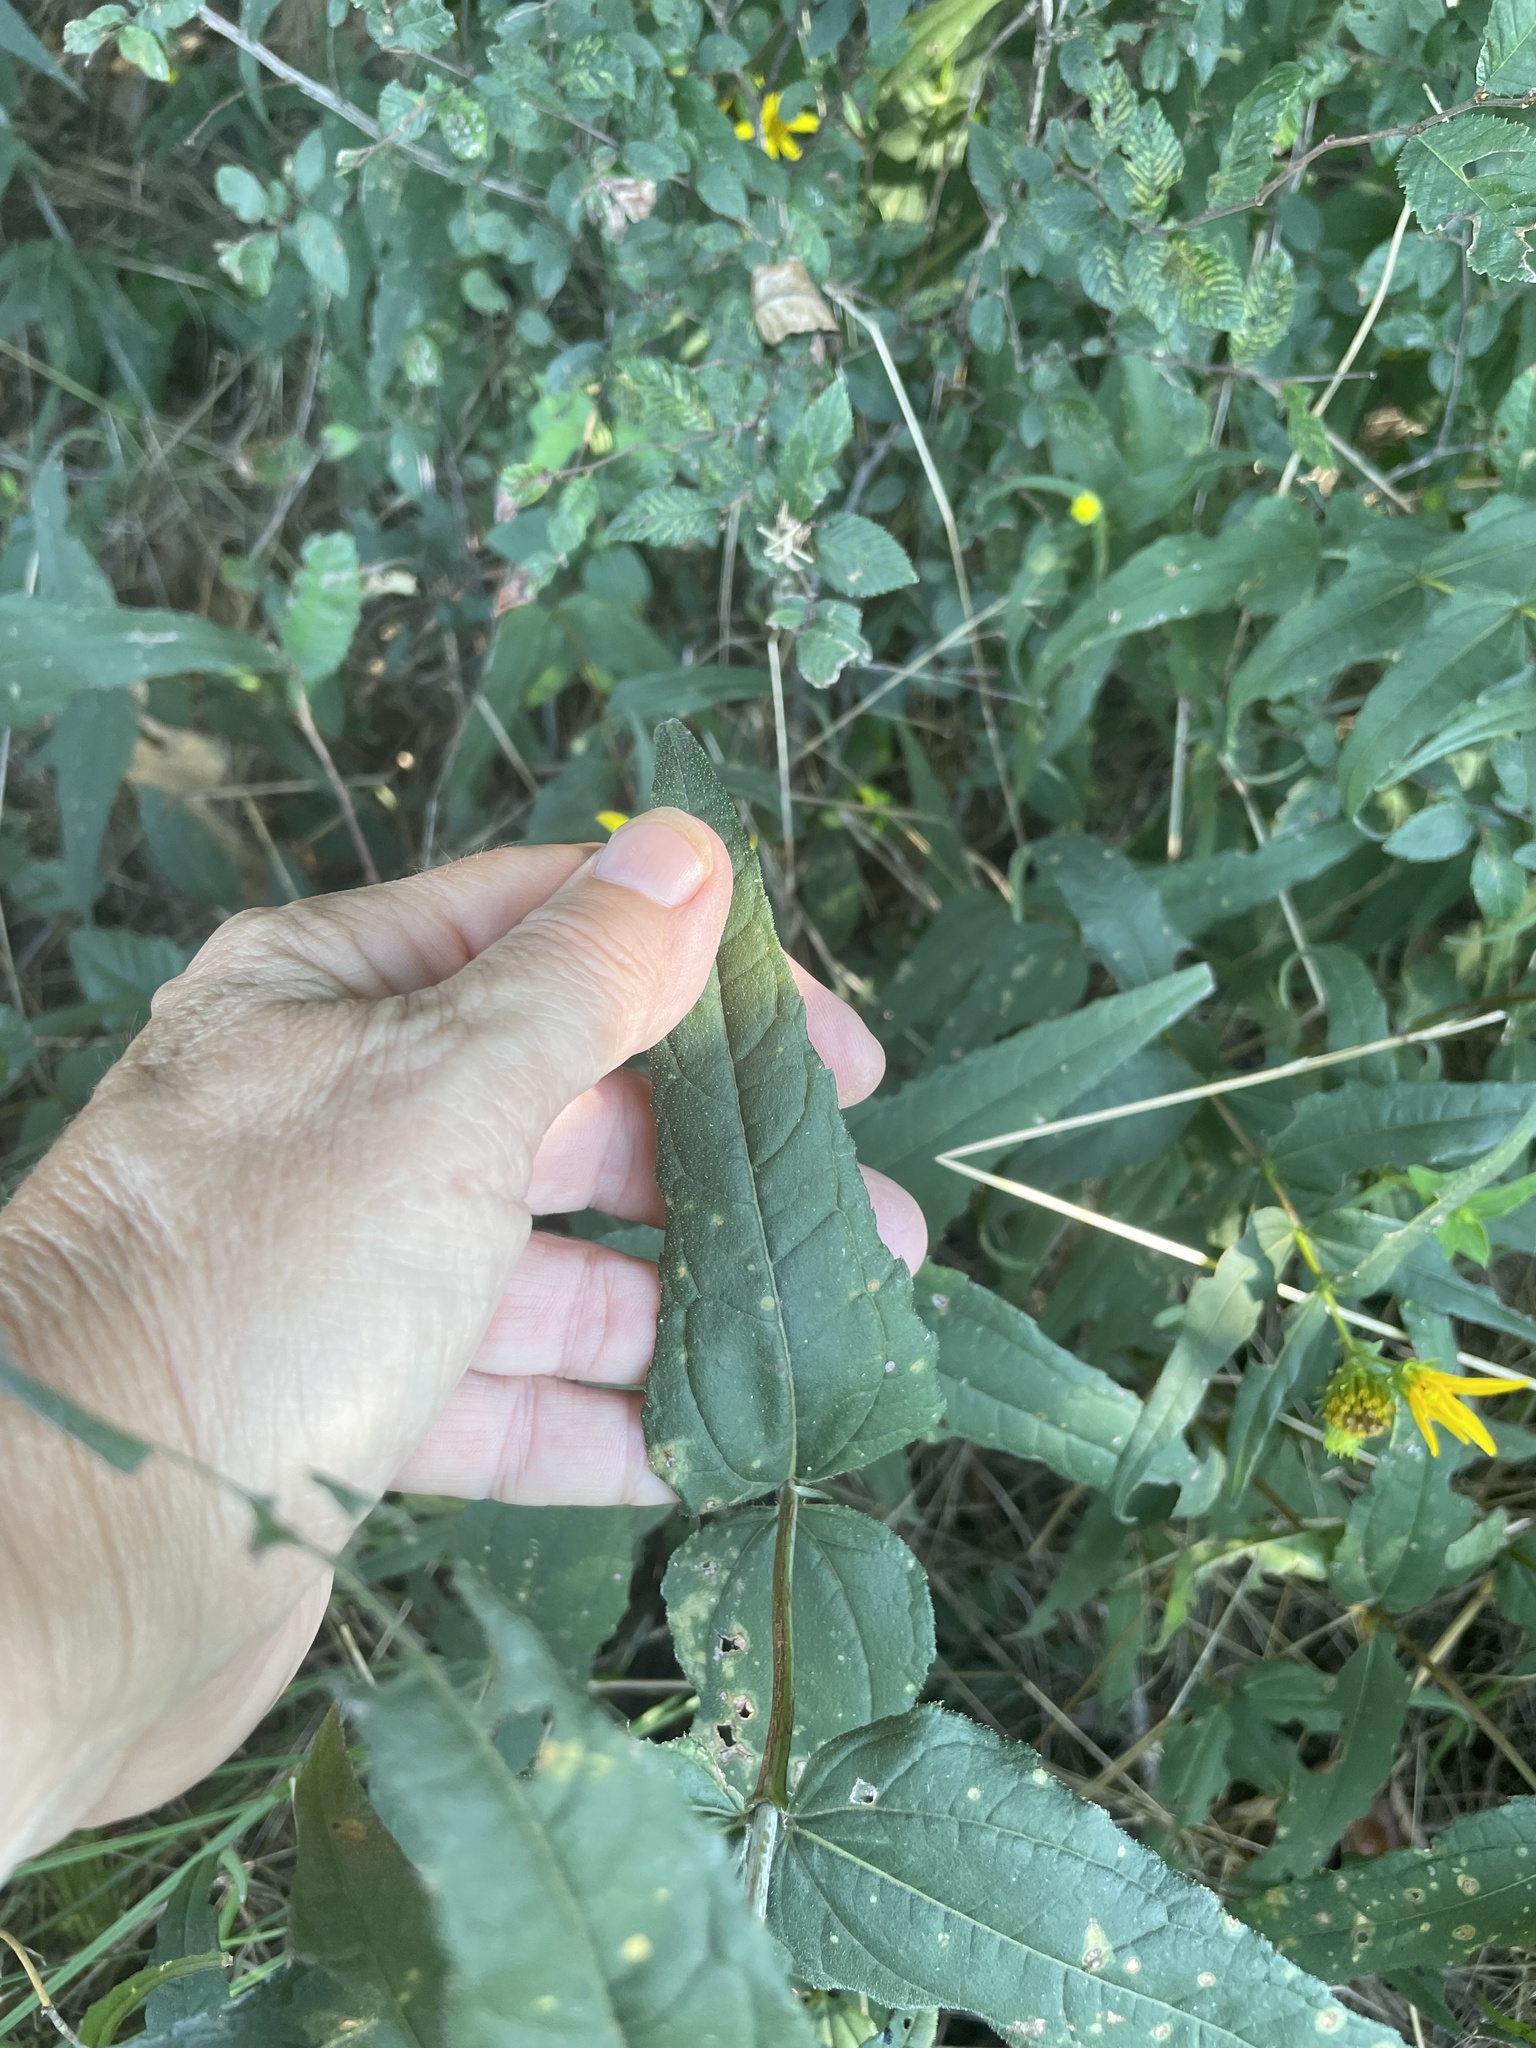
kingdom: Plantae
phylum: Tracheophyta
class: Magnoliopsida
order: Asterales
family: Asteraceae
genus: Helianthus
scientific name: Helianthus divaricatus
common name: Divergent sunflower
